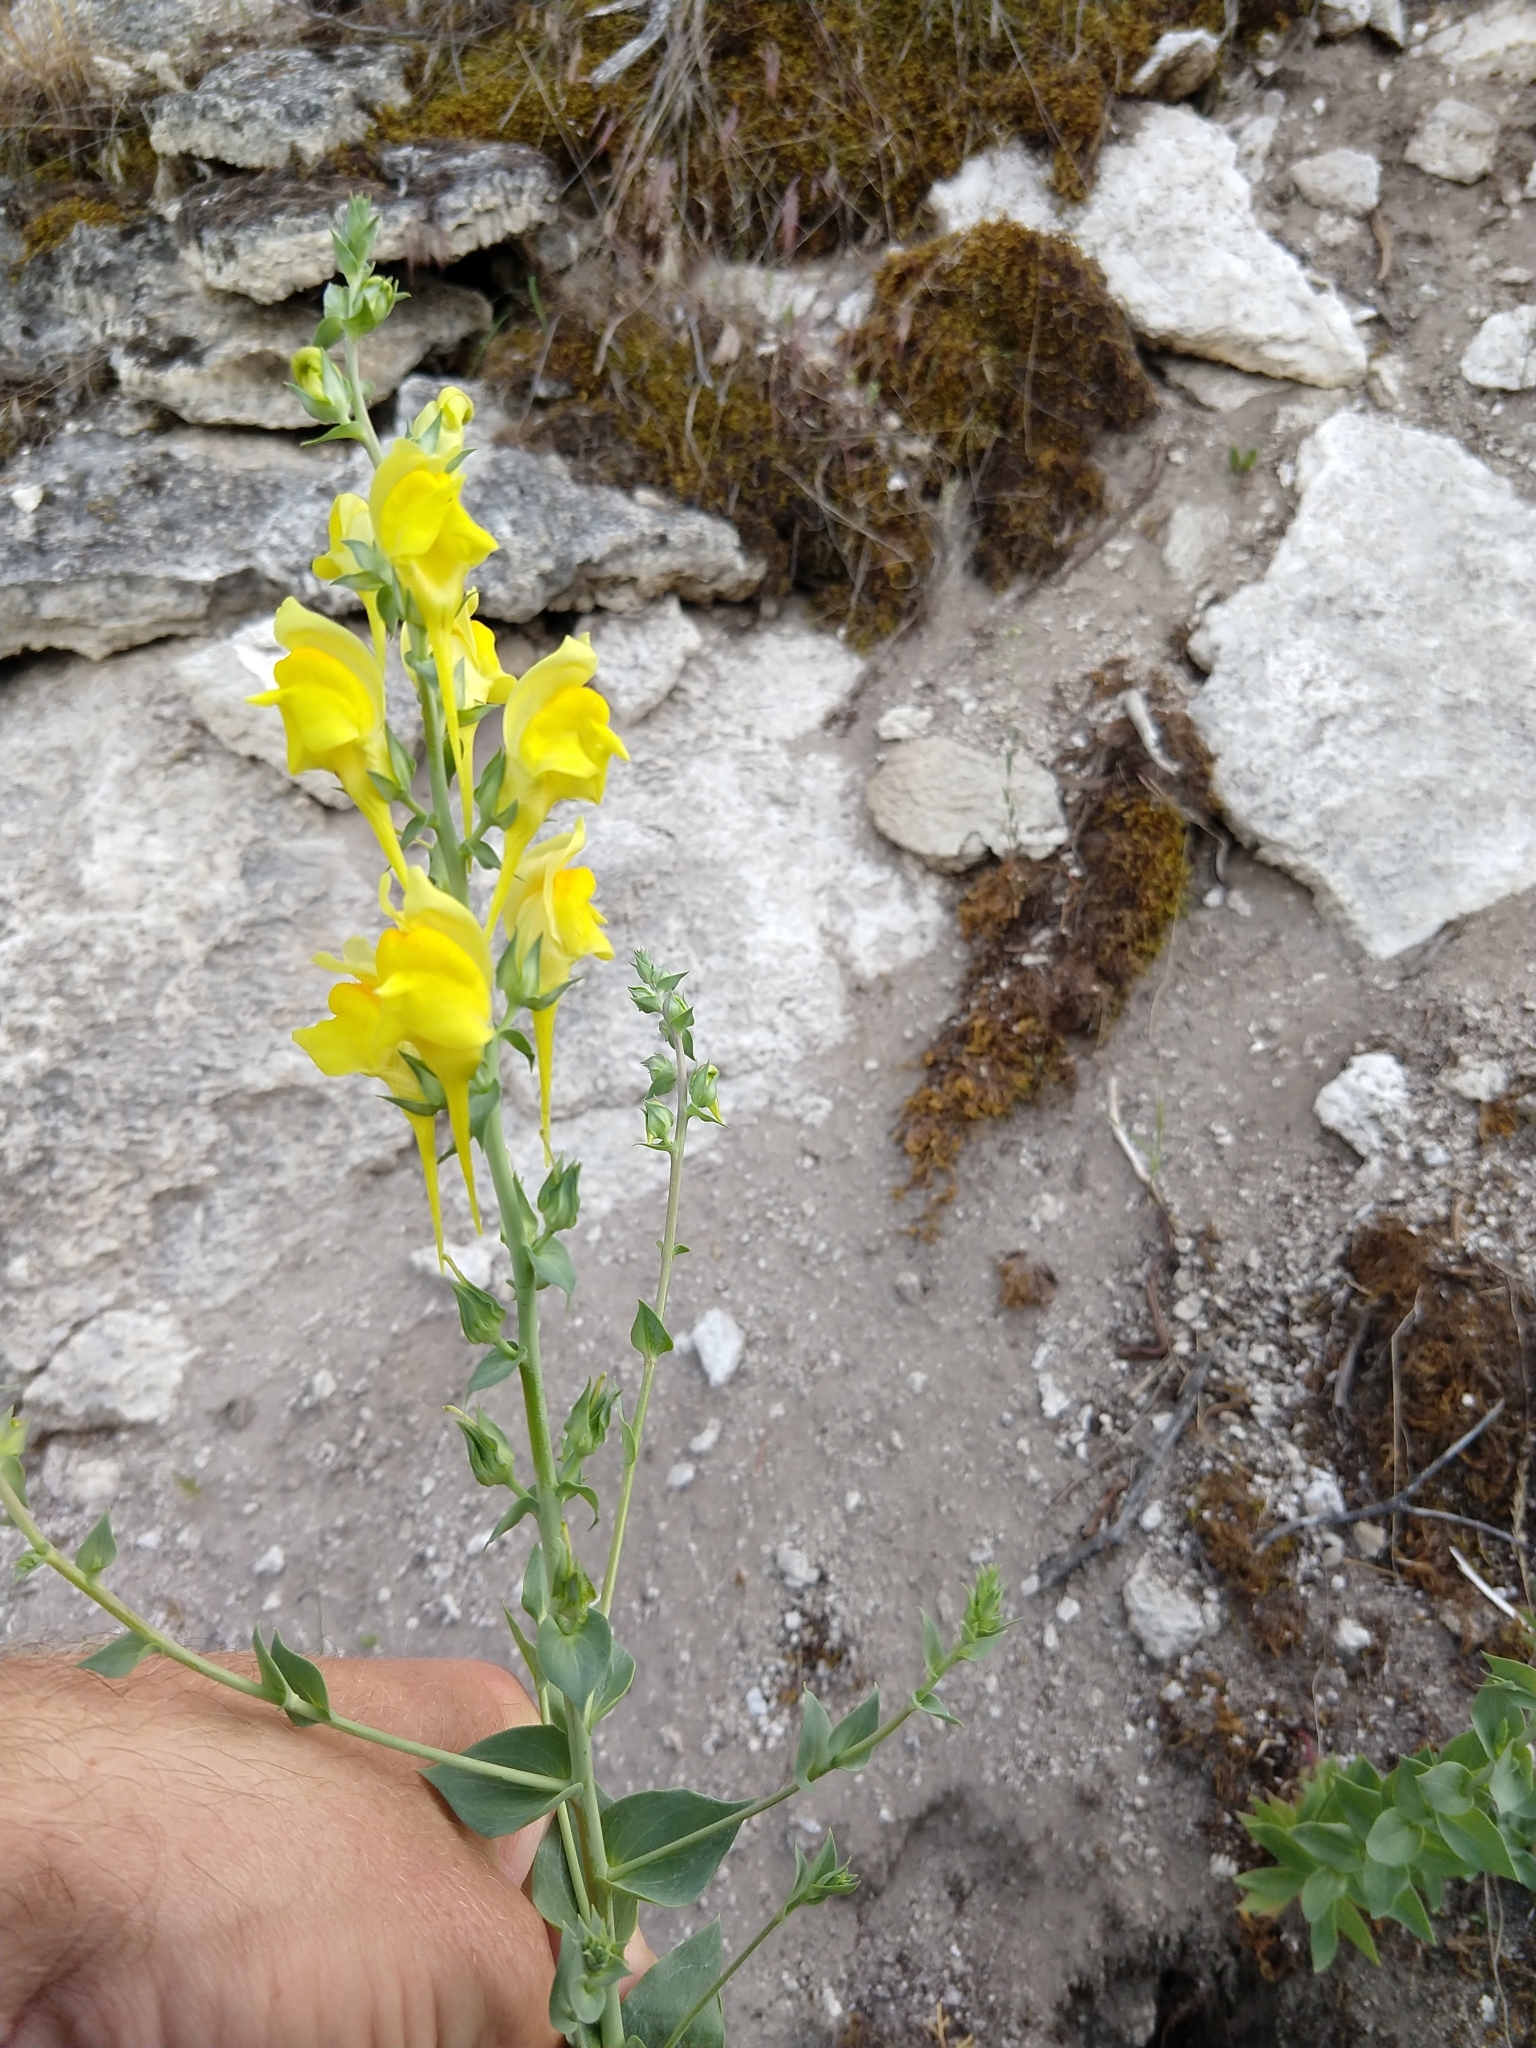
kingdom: Plantae
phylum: Tracheophyta
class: Magnoliopsida
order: Lamiales
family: Plantaginaceae
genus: Linaria
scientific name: Linaria dalmatica
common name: Dalmatian toadflax
